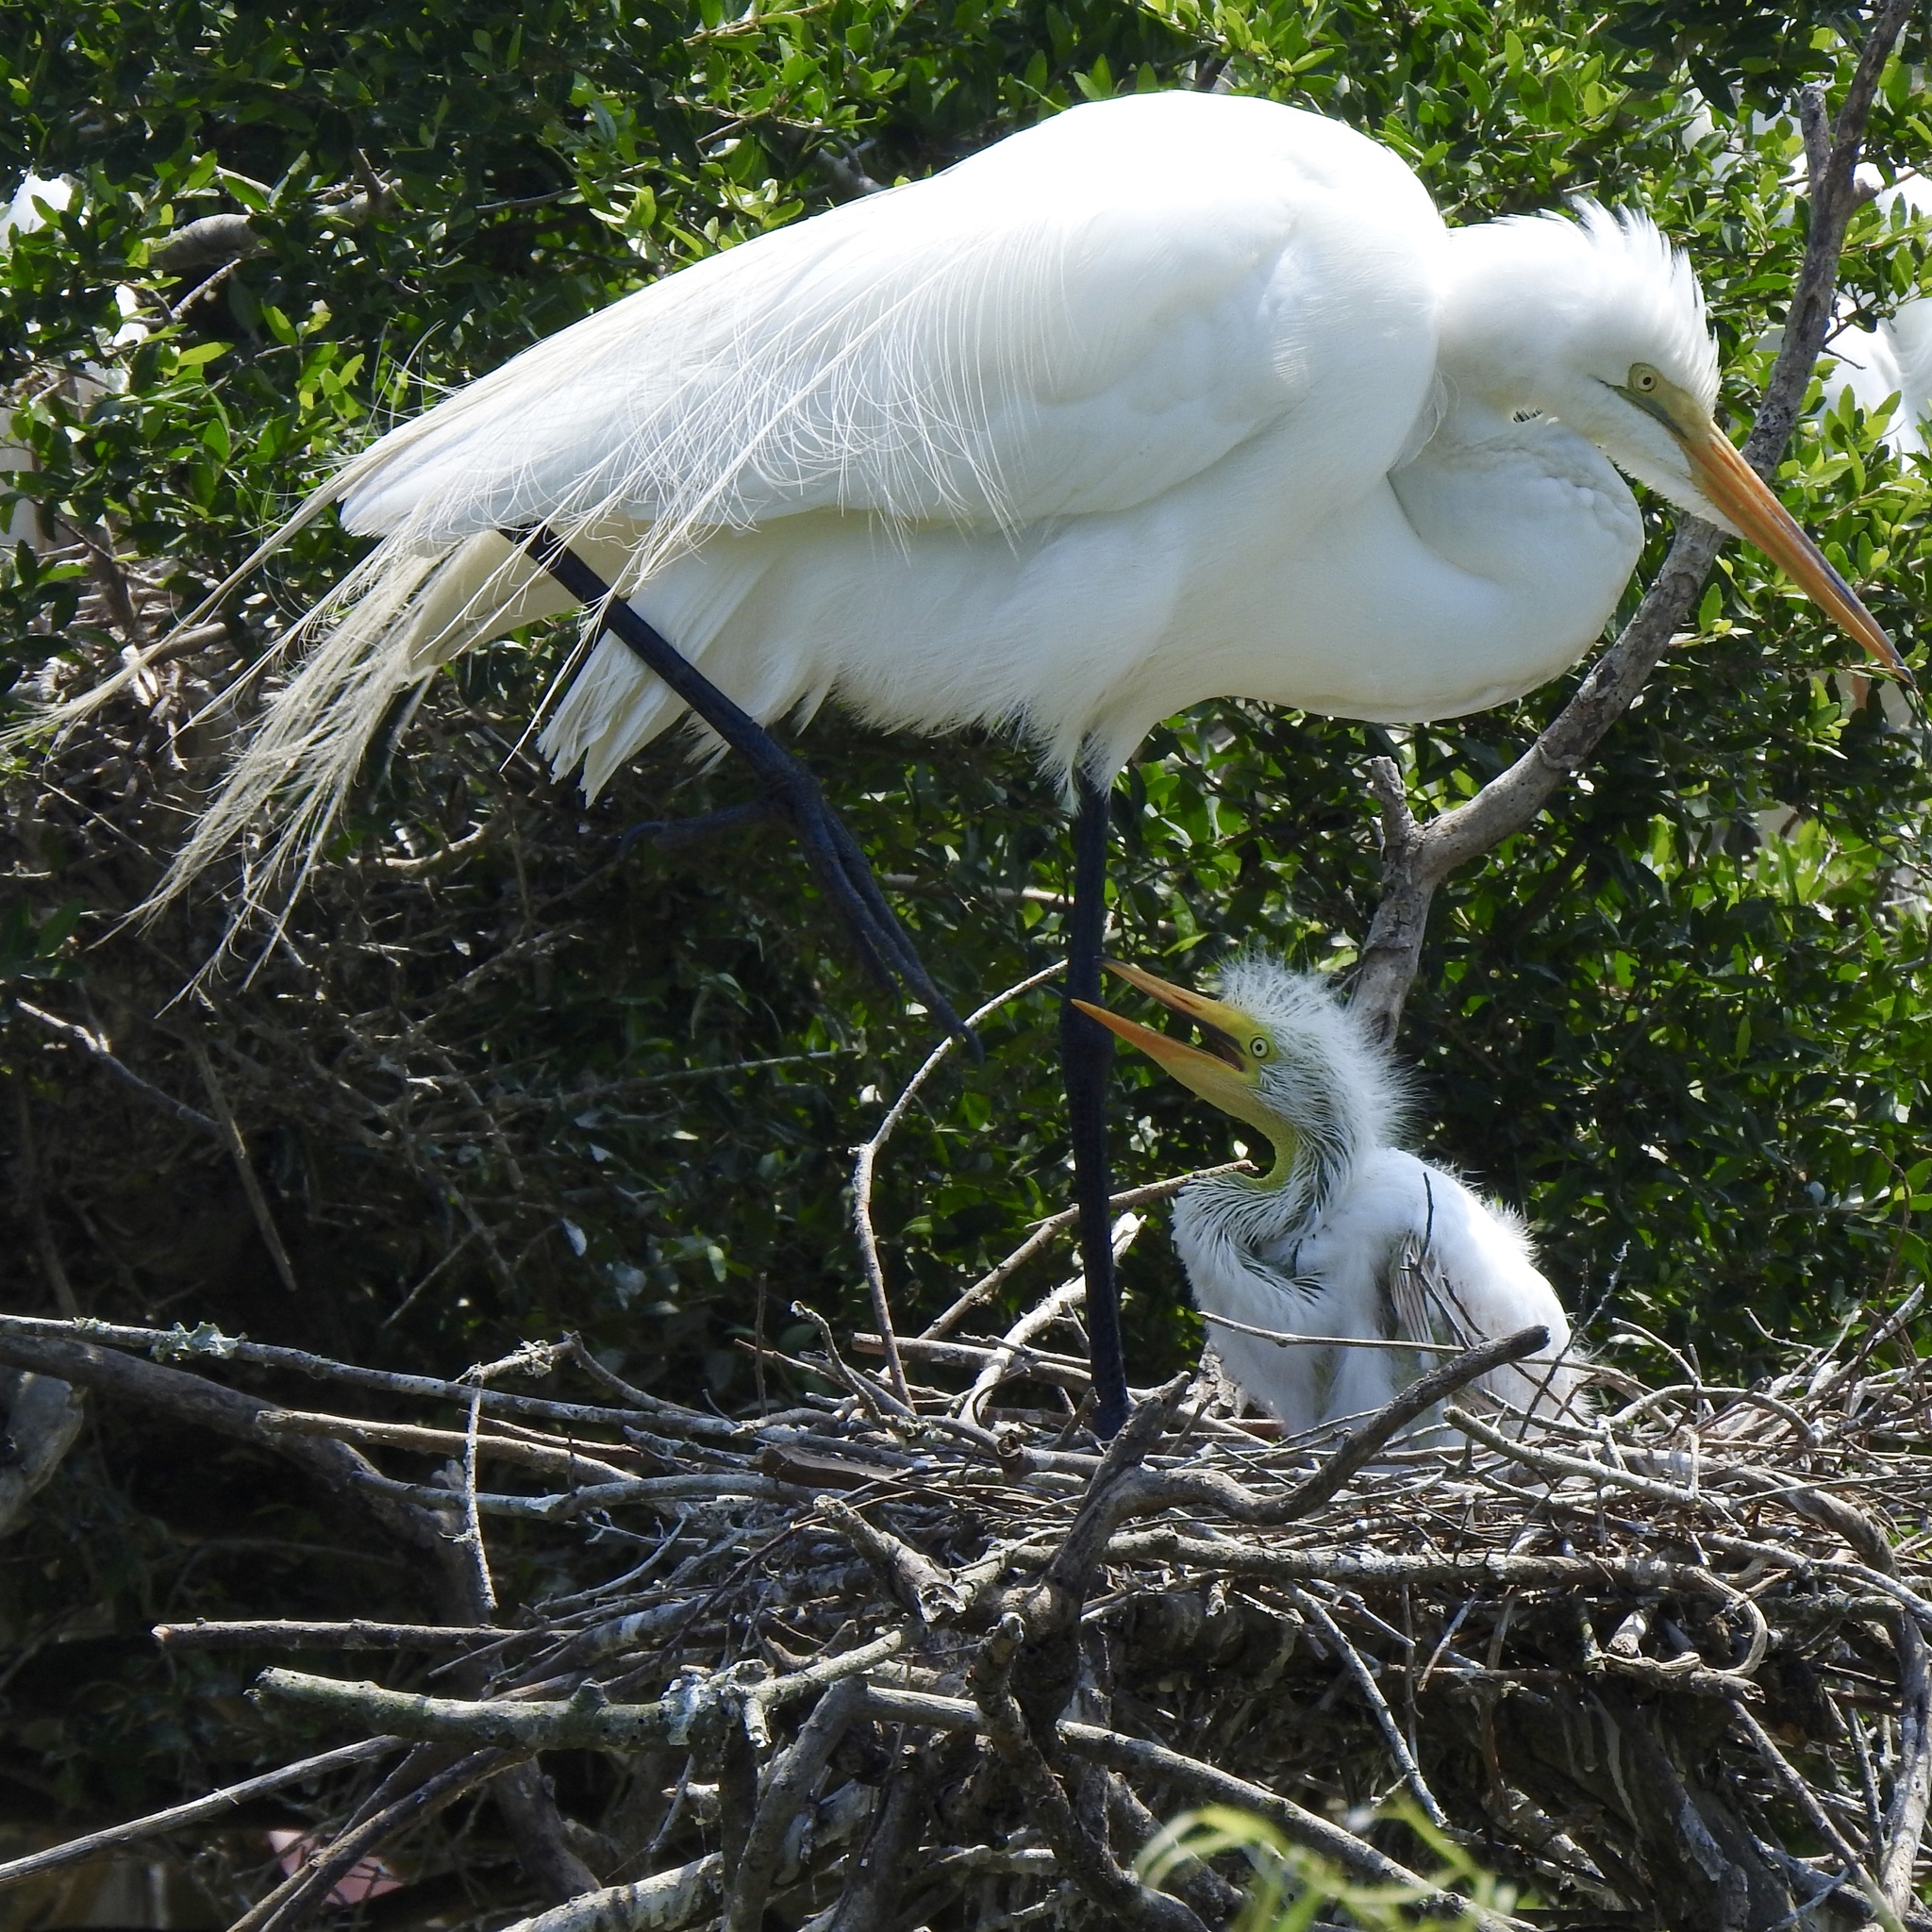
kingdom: Animalia
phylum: Chordata
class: Aves
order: Pelecaniformes
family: Ardeidae
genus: Ardea
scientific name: Ardea alba
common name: Great egret
